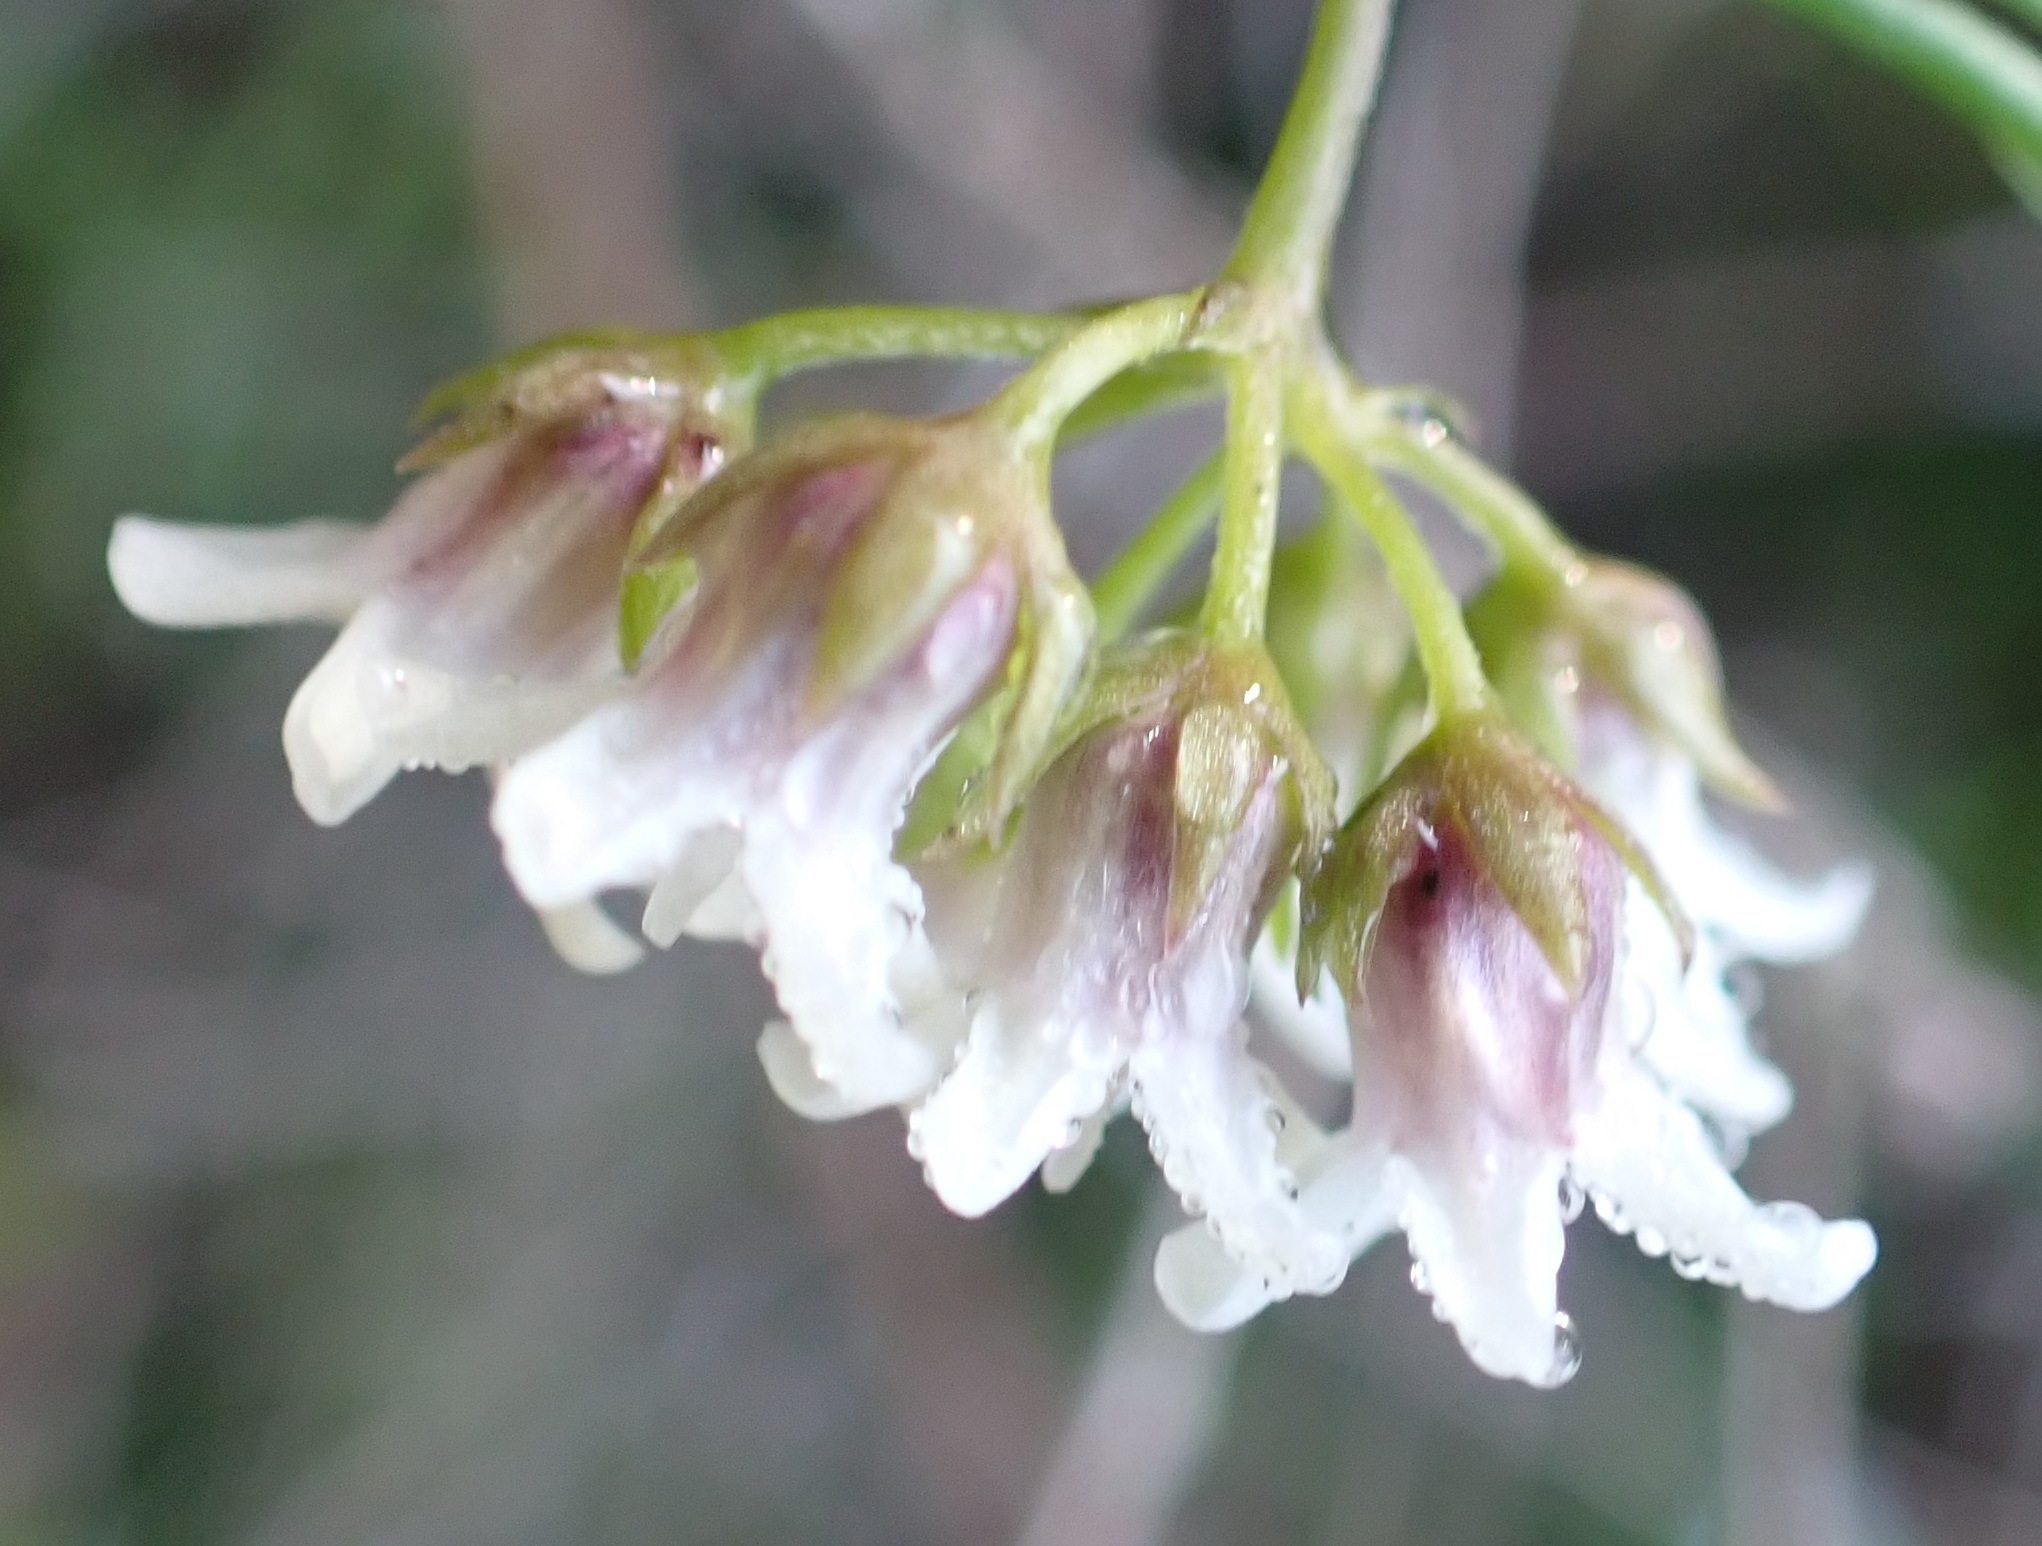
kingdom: Plantae
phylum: Tracheophyta
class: Magnoliopsida
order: Gentianales
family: Apocynaceae
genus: Astephanus
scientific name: Astephanus triflorus
